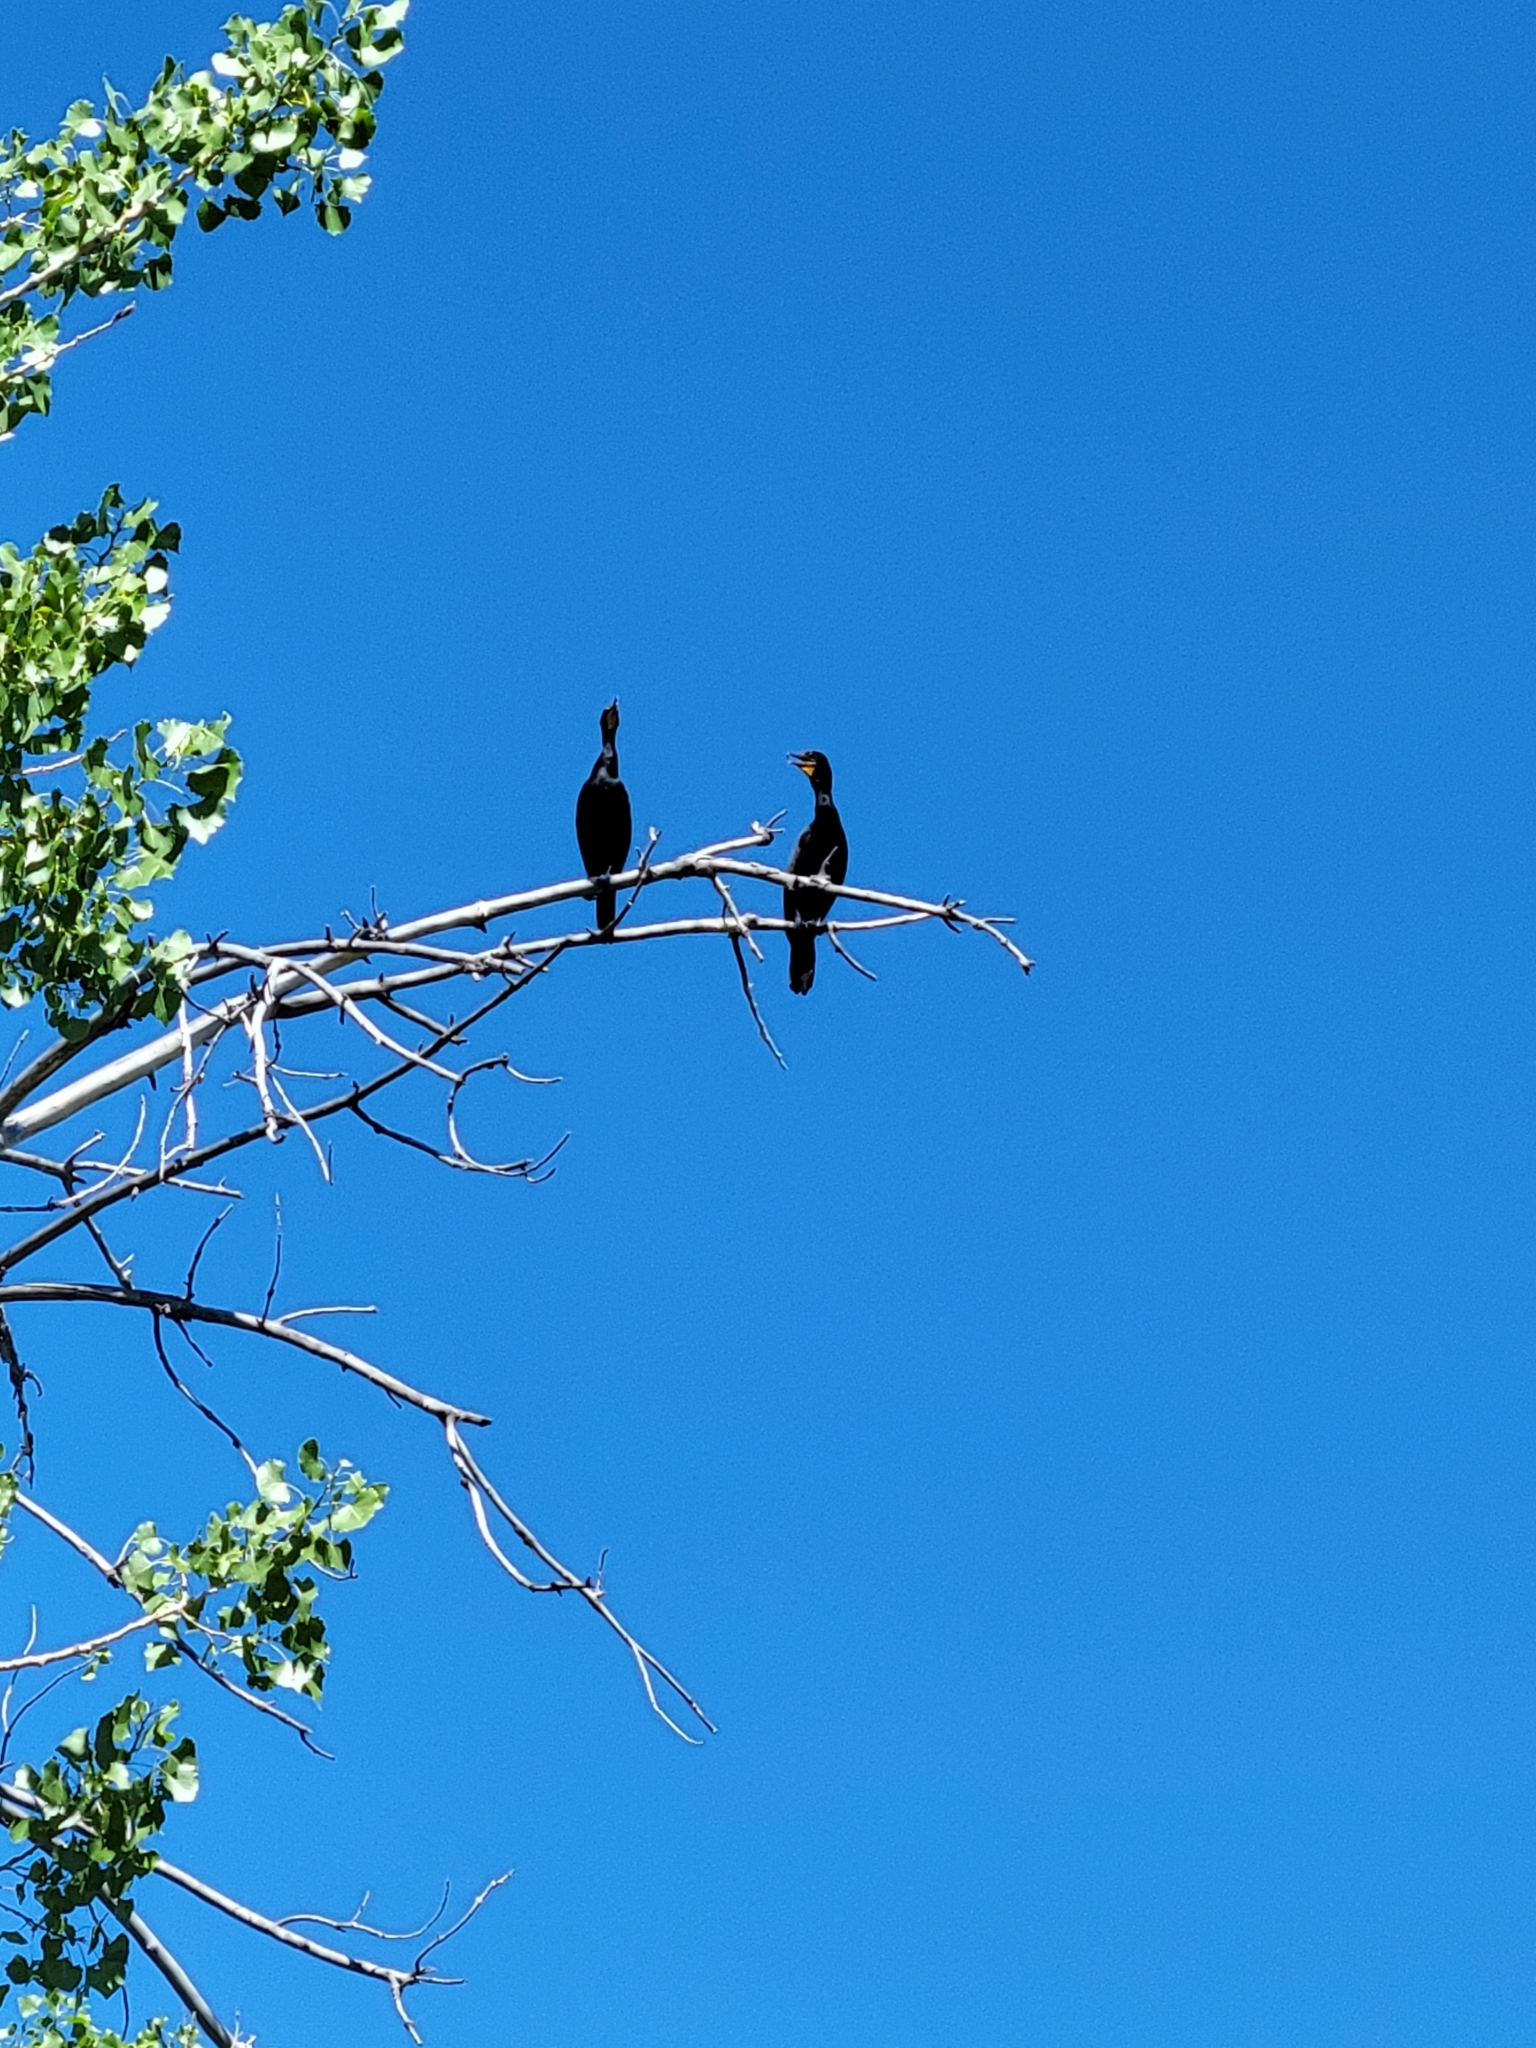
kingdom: Animalia
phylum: Chordata
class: Aves
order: Suliformes
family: Phalacrocoracidae
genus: Phalacrocorax
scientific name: Phalacrocorax auritus
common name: Double-crested cormorant
